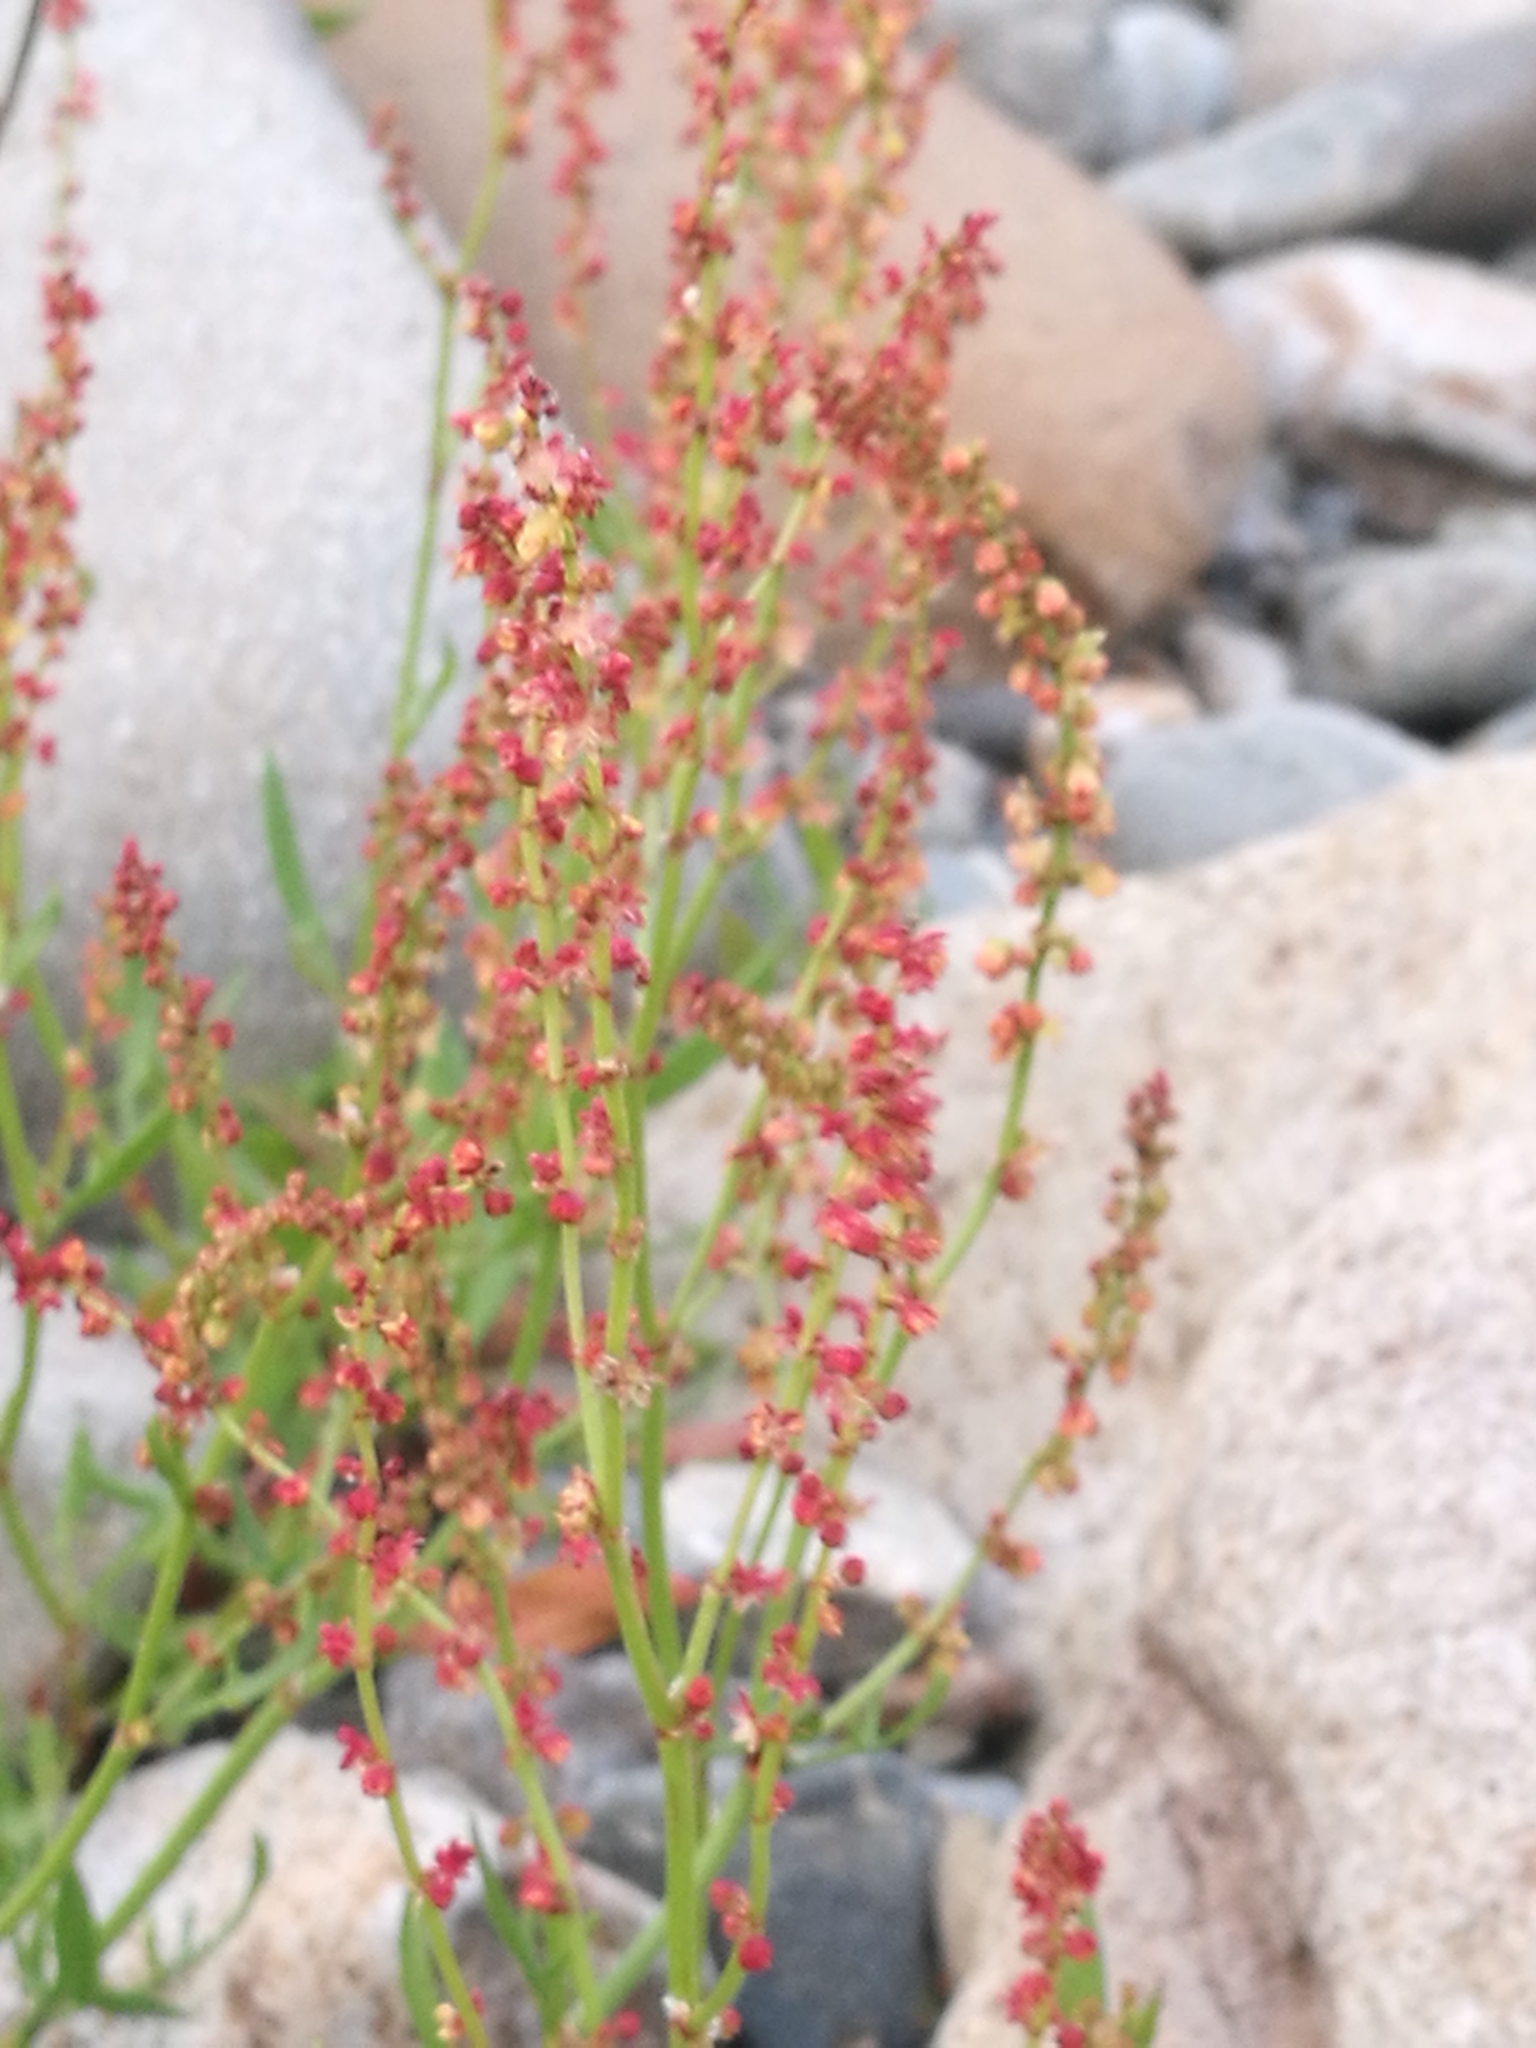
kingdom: Plantae
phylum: Tracheophyta
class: Magnoliopsida
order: Caryophyllales
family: Polygonaceae
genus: Rumex
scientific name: Rumex acetosella
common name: Common sheep sorrel
